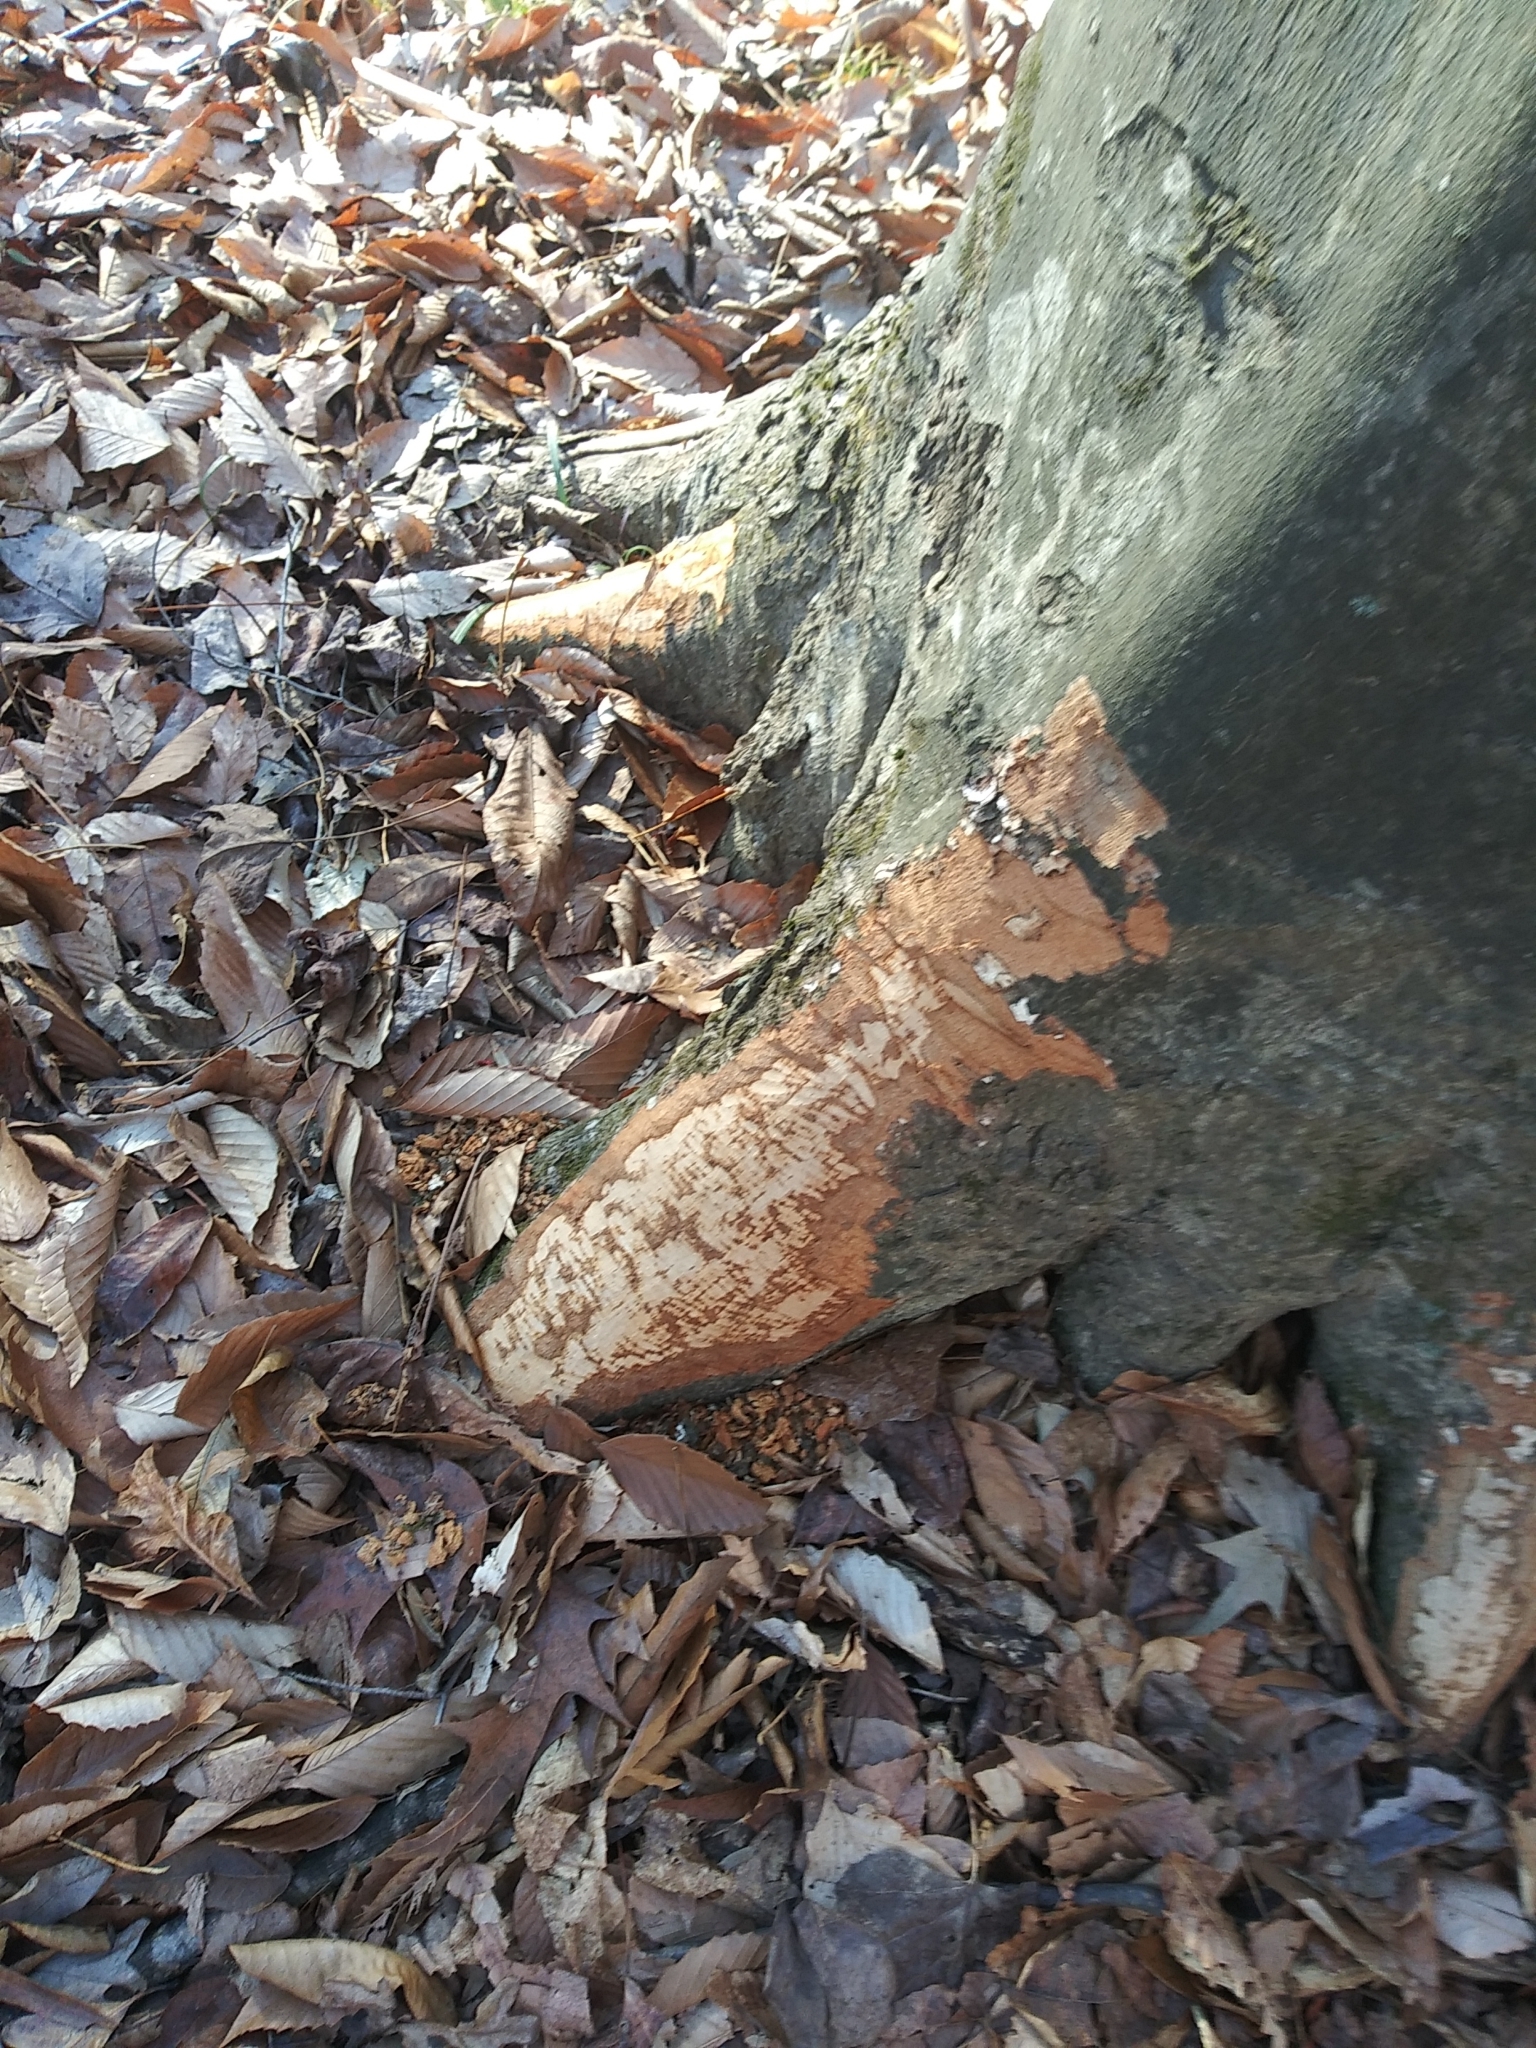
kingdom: Animalia
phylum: Chordata
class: Mammalia
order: Rodentia
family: Castoridae
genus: Castor
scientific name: Castor canadensis
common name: American beaver
